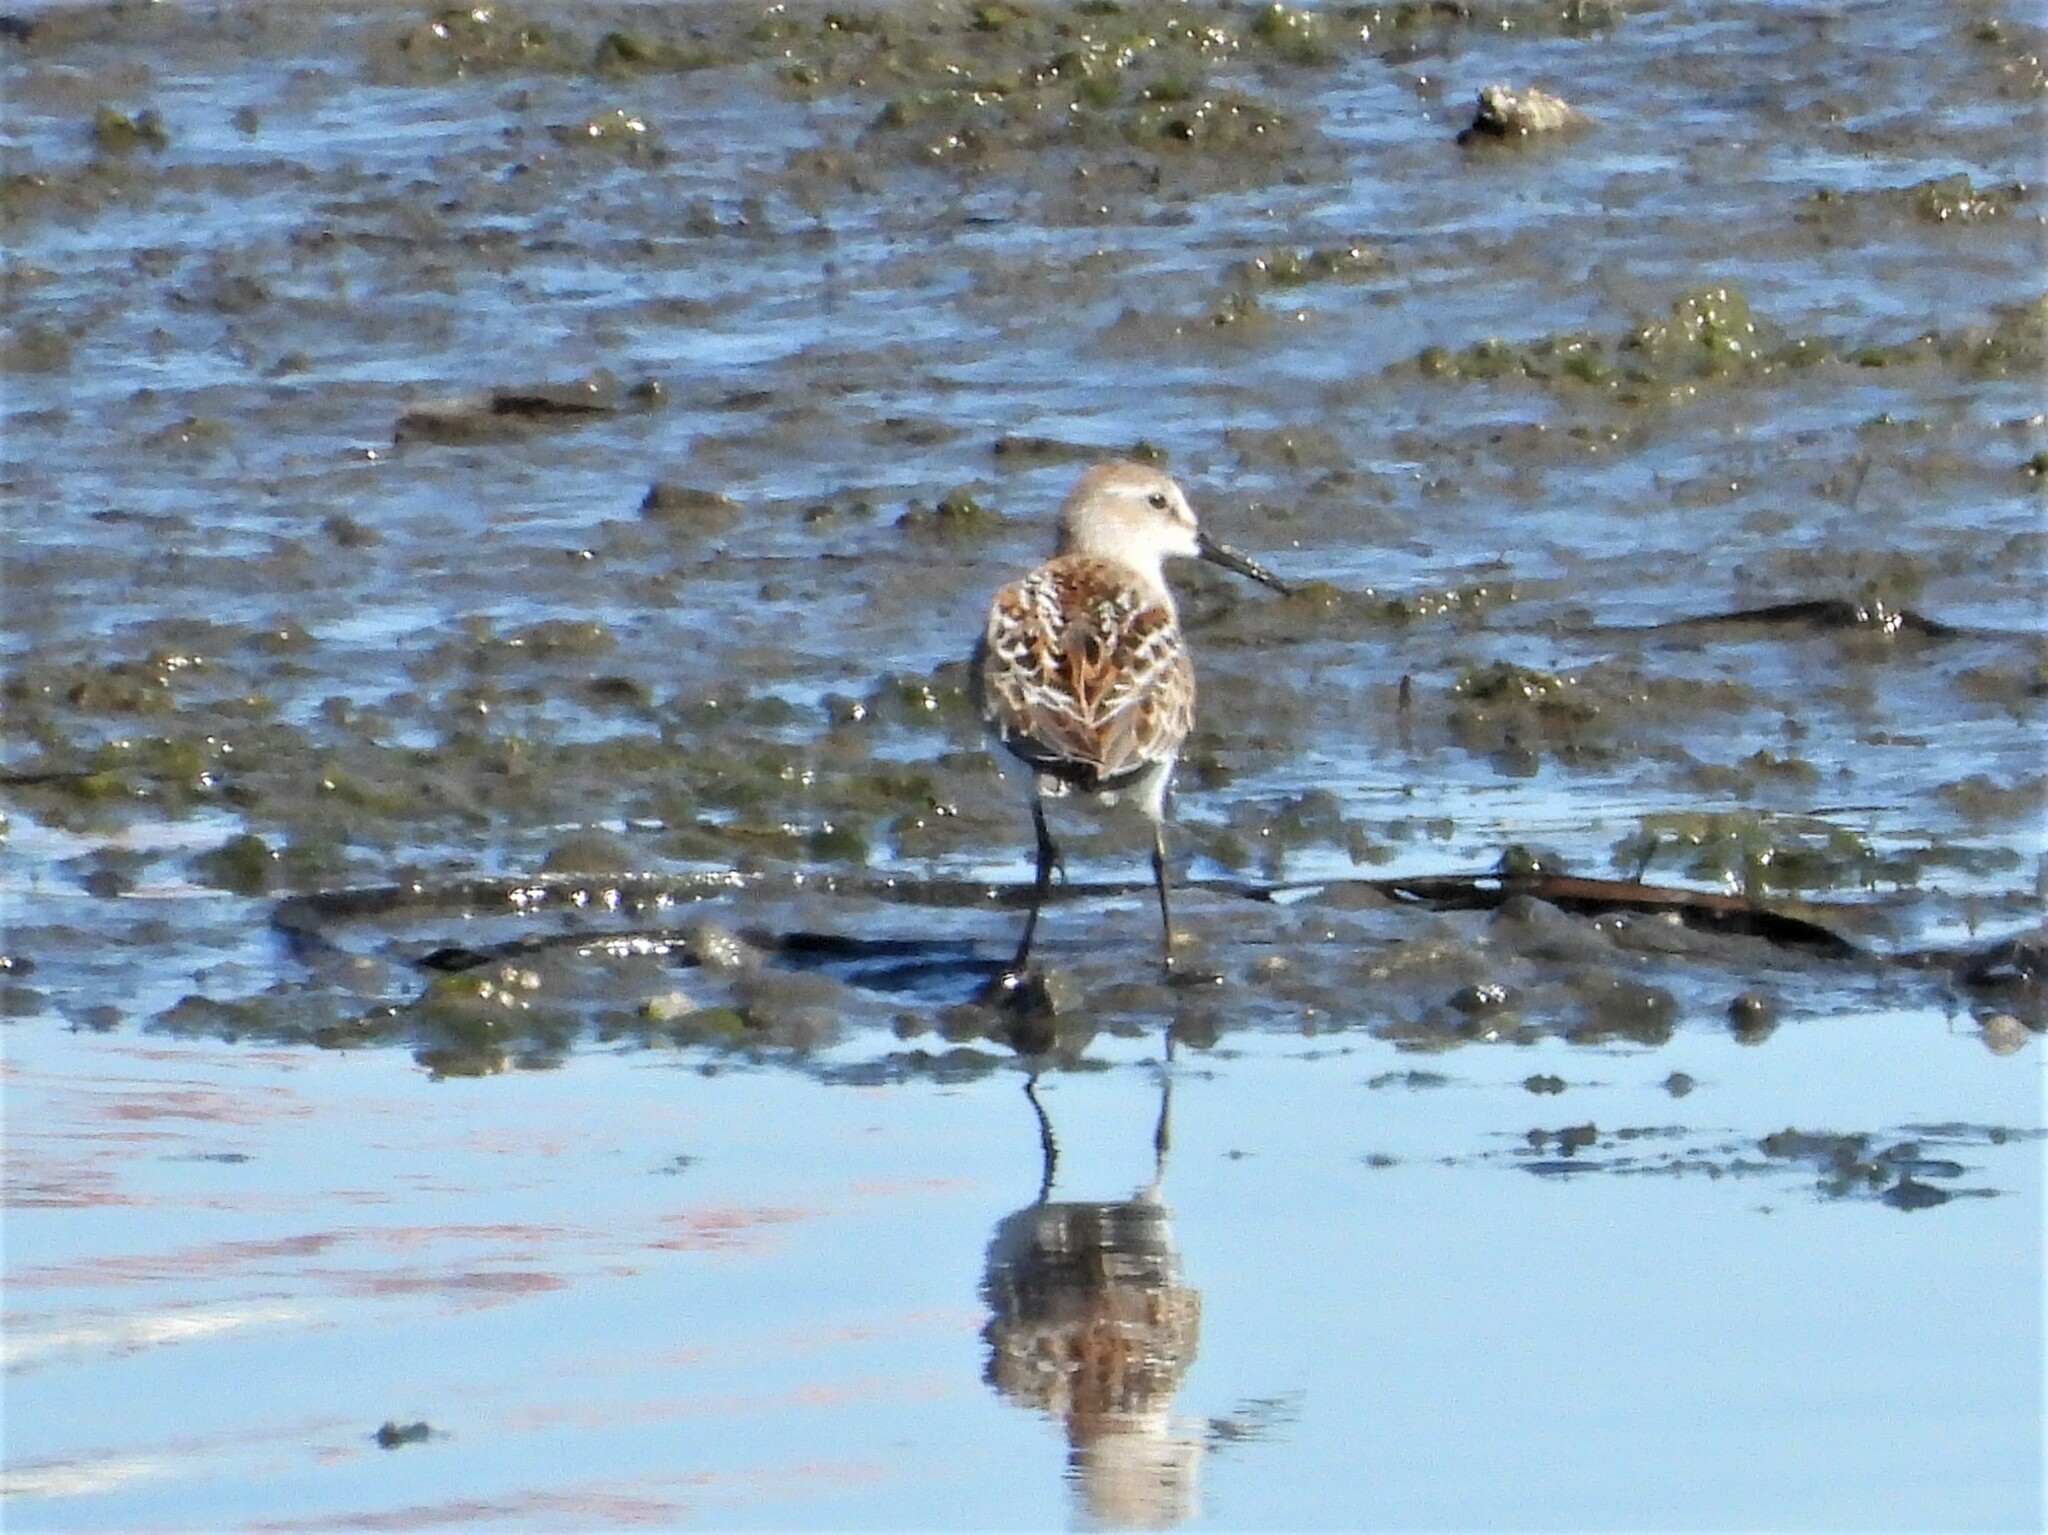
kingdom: Animalia
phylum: Chordata
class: Aves
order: Charadriiformes
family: Scolopacidae
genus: Calidris
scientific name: Calidris mauri
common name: Western sandpiper
